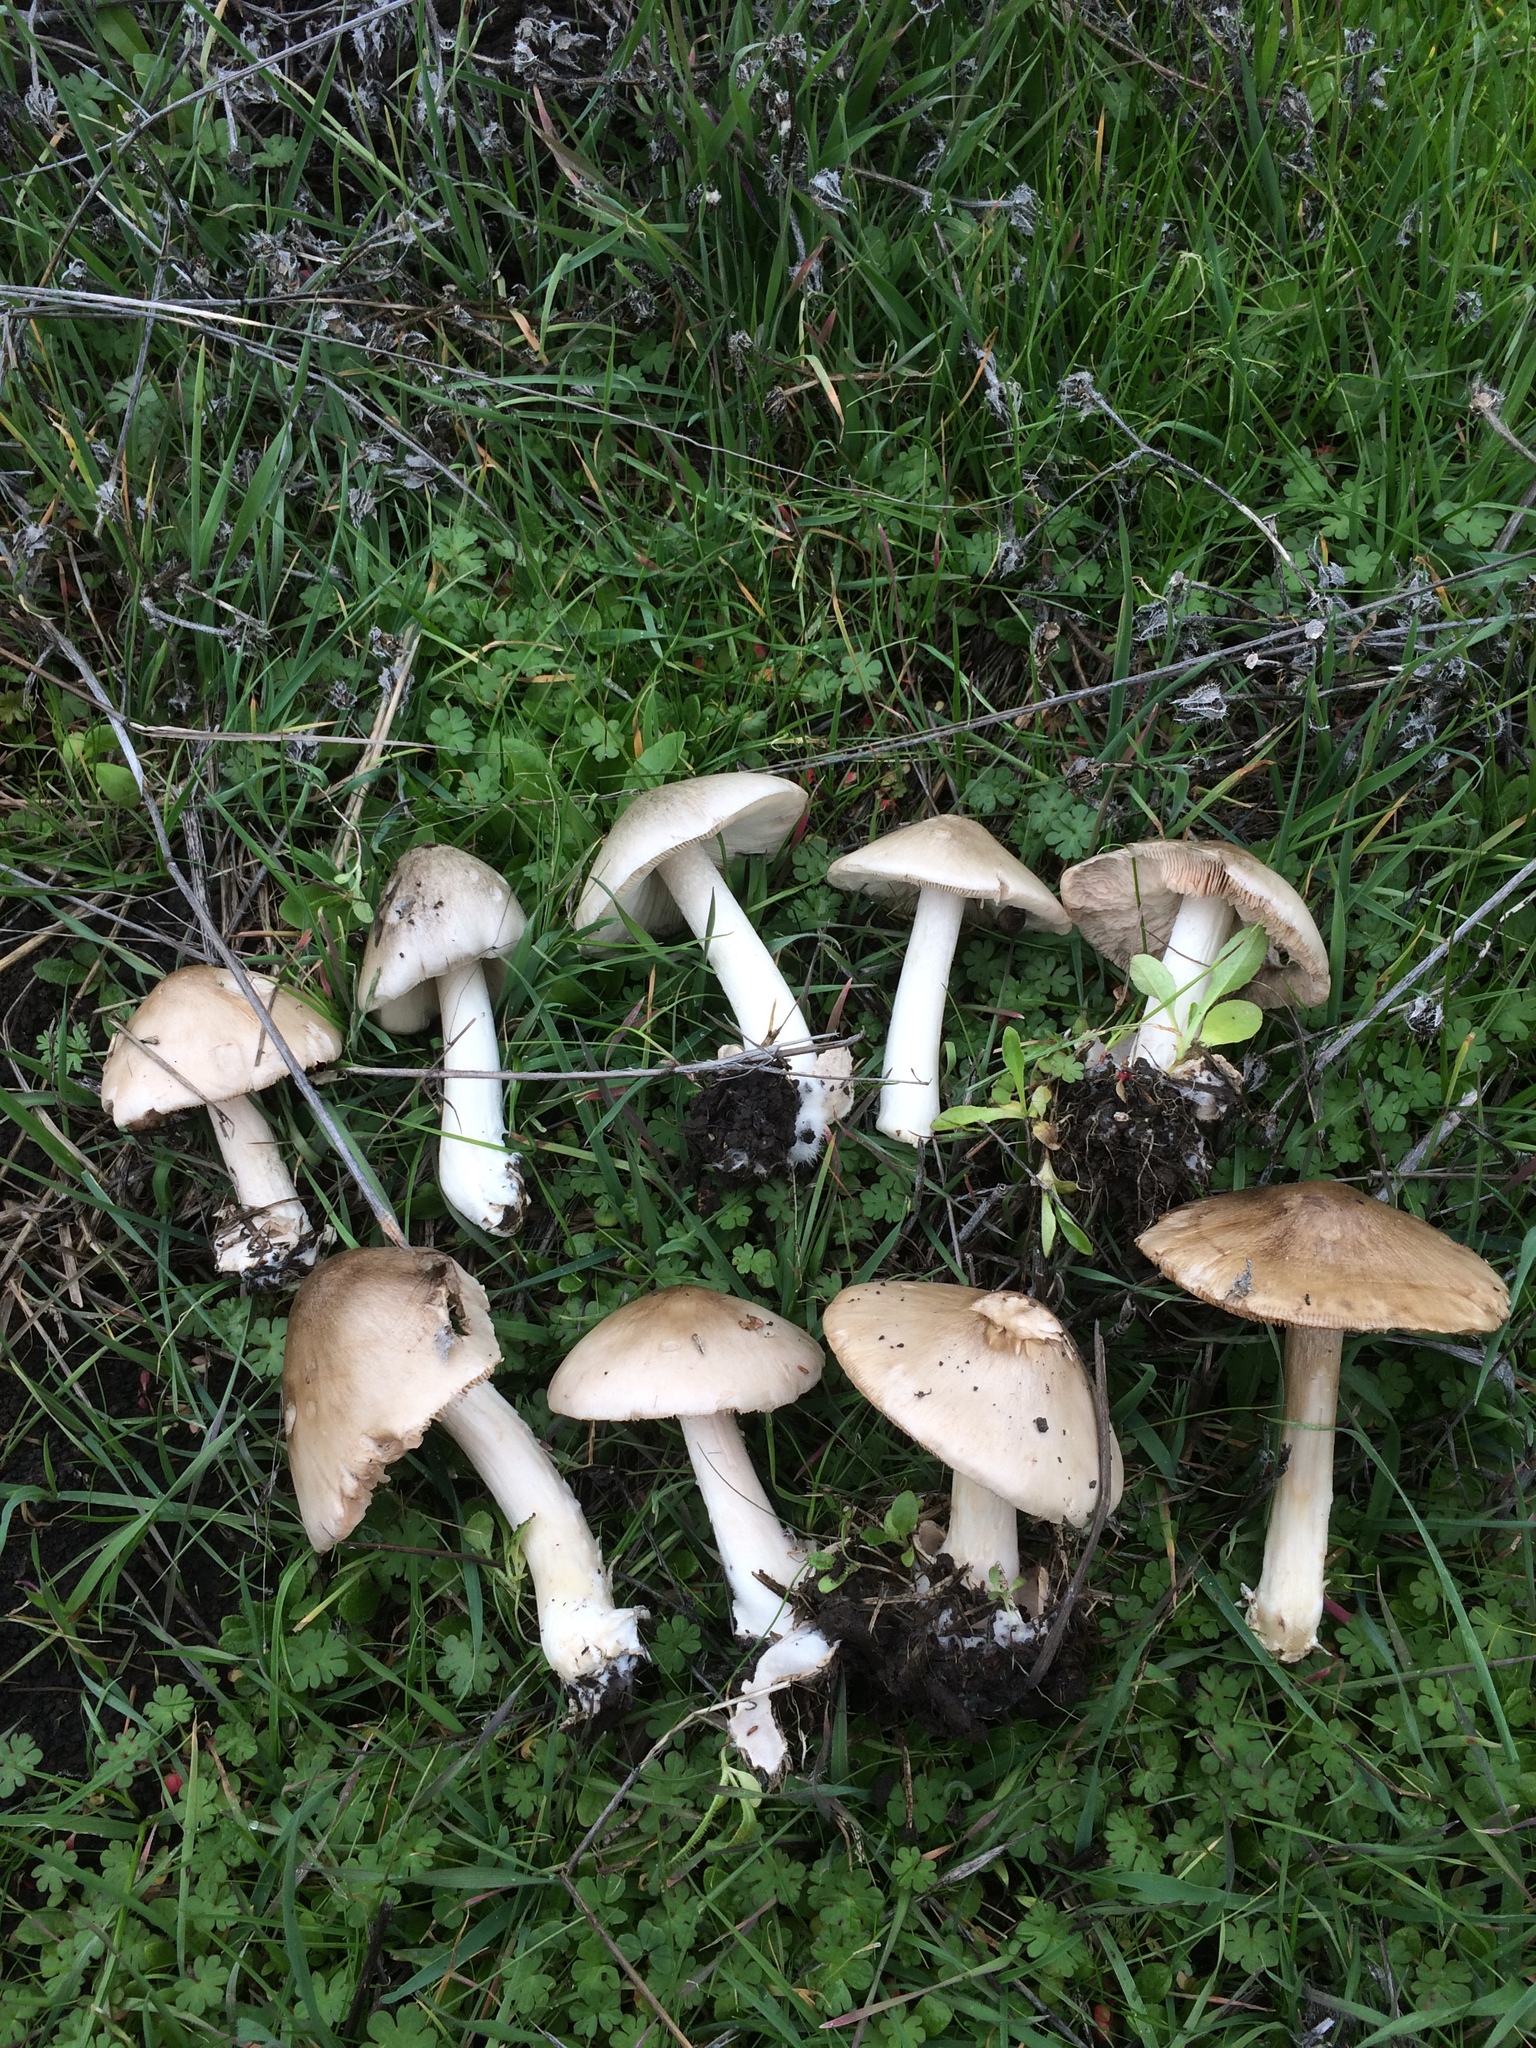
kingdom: Fungi
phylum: Basidiomycota
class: Agaricomycetes
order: Agaricales
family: Pluteaceae
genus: Volvopluteus
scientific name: Volvopluteus gloiocephalus
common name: Stubble rosegill
